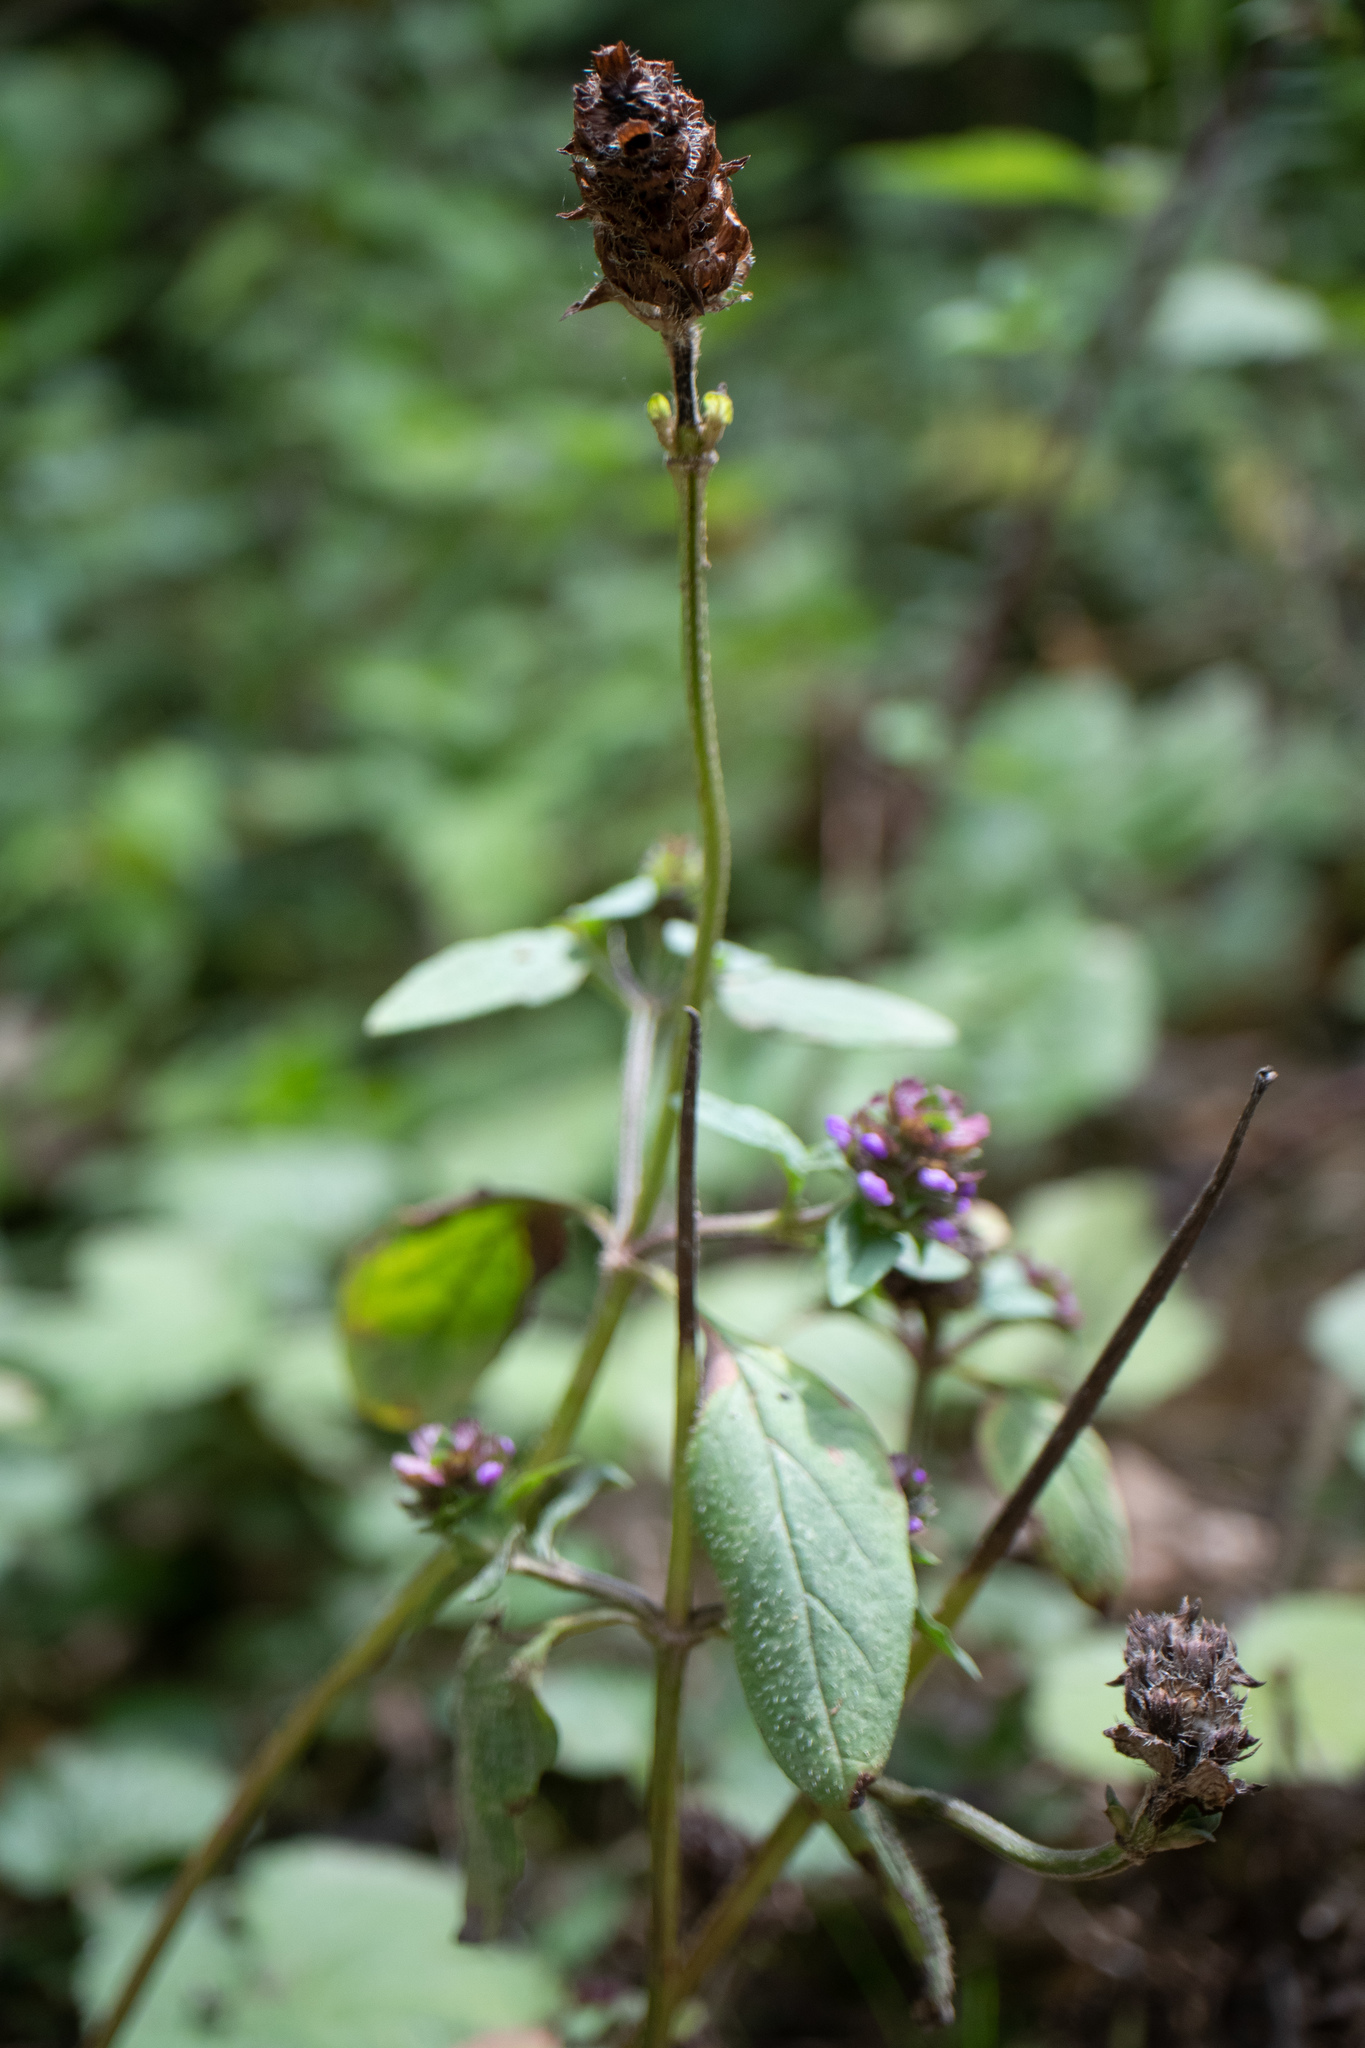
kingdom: Plantae
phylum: Tracheophyta
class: Magnoliopsida
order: Lamiales
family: Lamiaceae
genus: Prunella
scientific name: Prunella vulgaris
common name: Heal-all
